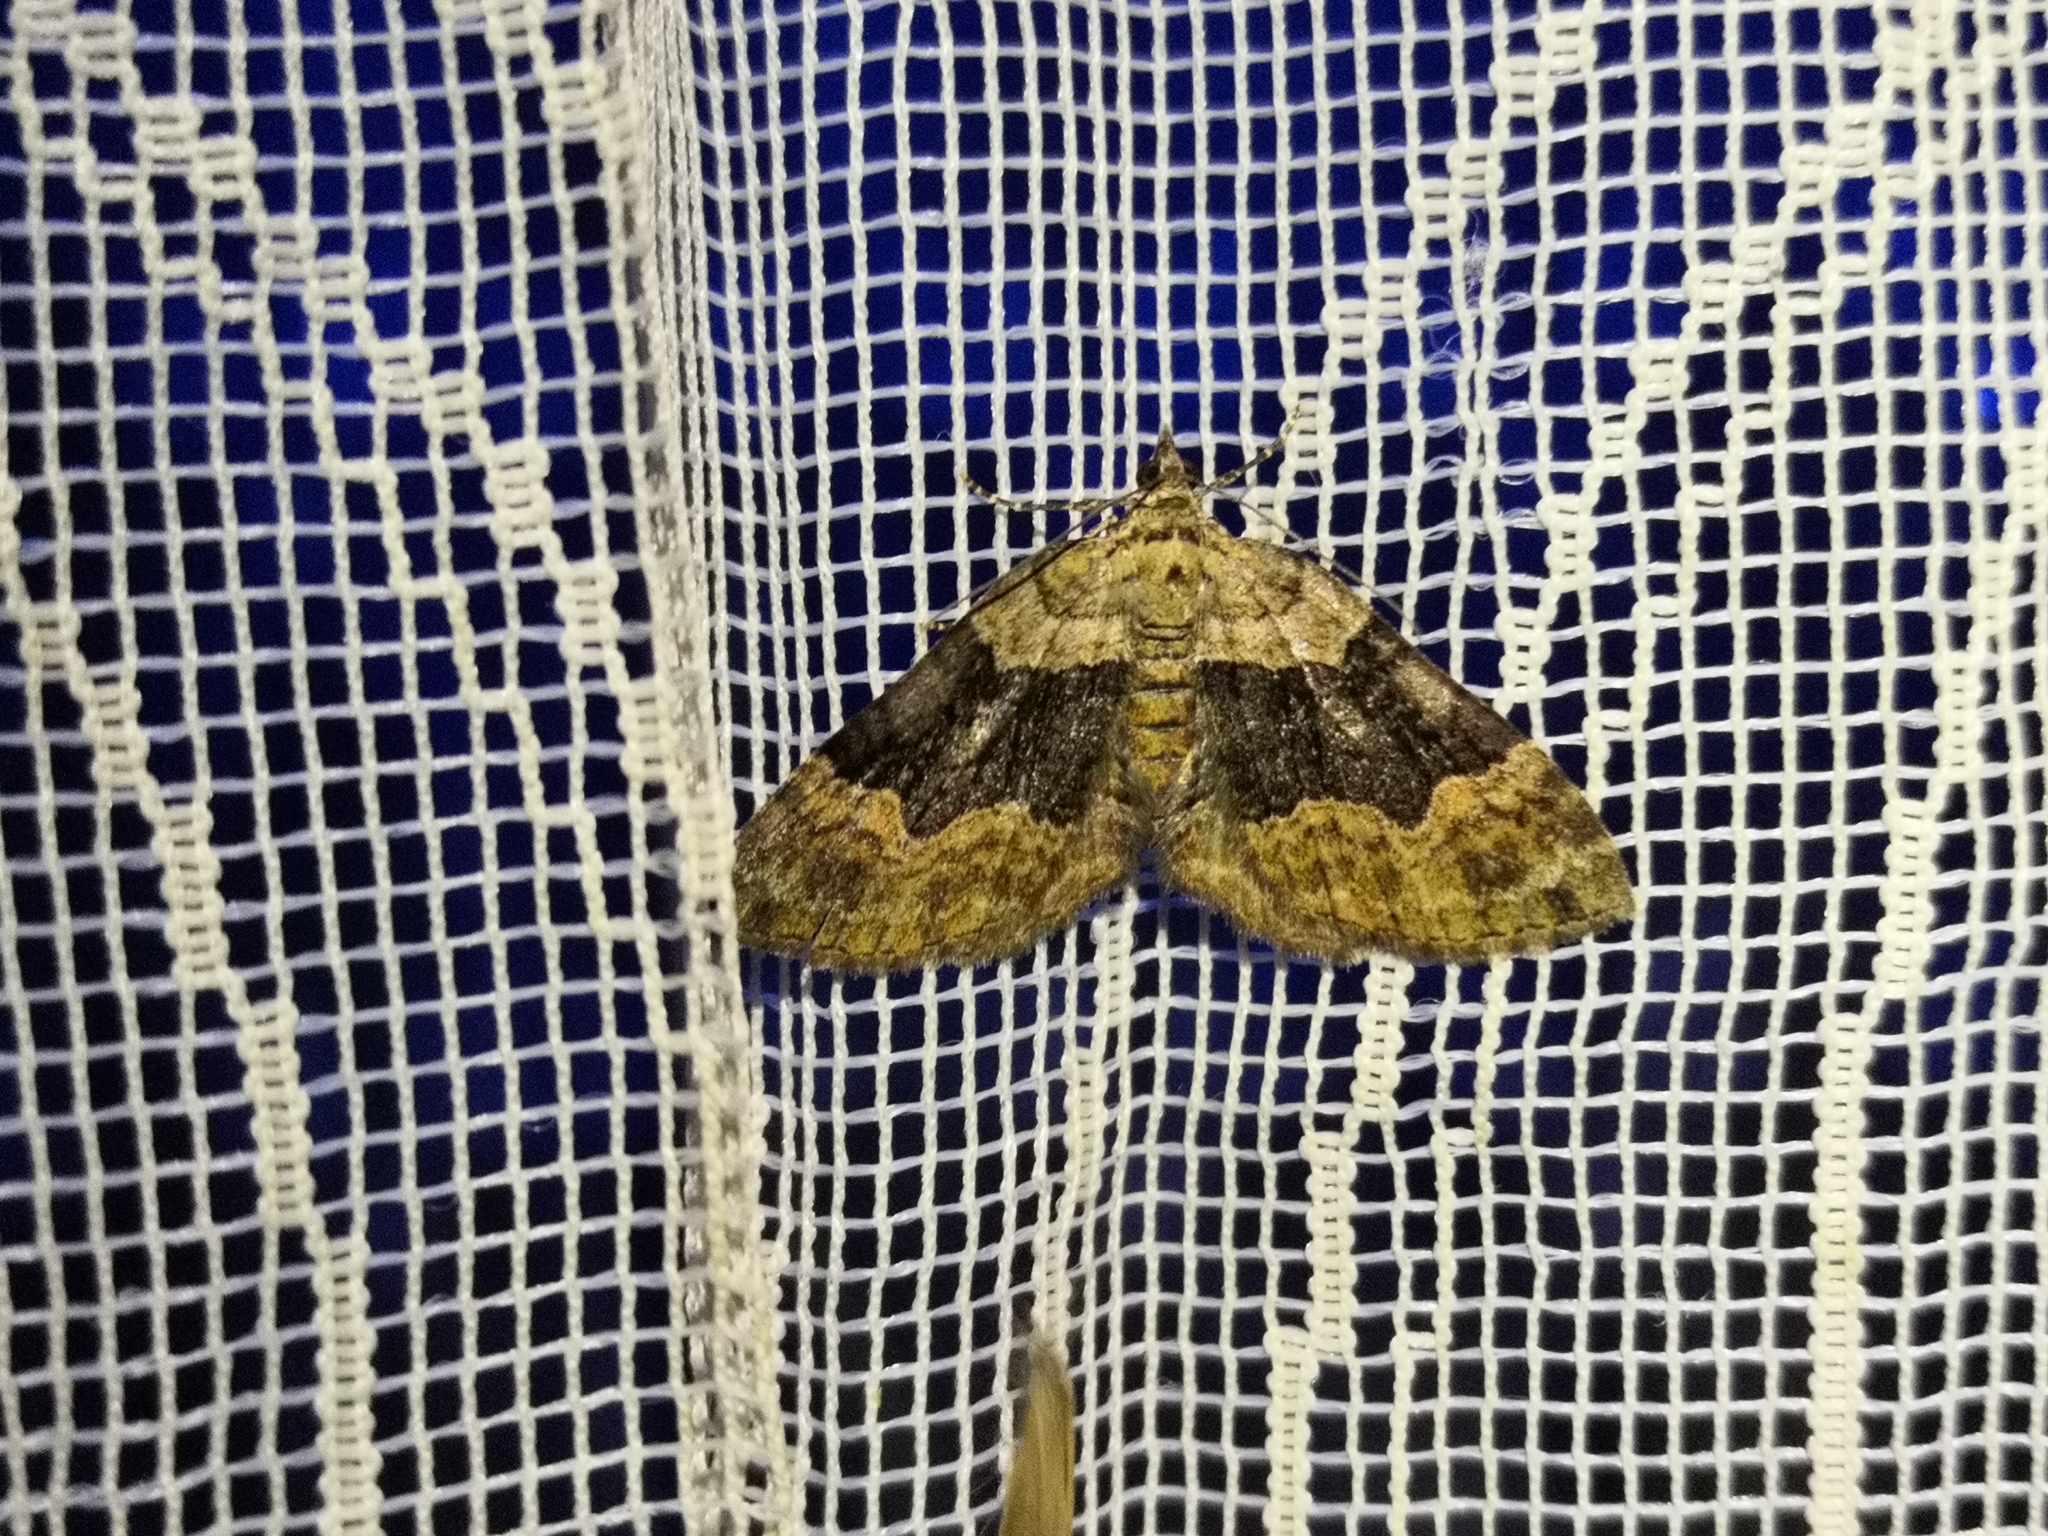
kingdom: Animalia
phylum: Arthropoda
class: Insecta
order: Lepidoptera
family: Geometridae
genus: Xanthorhoe
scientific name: Xanthorhoe quadrifasiata
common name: Large twin-spot carpet
